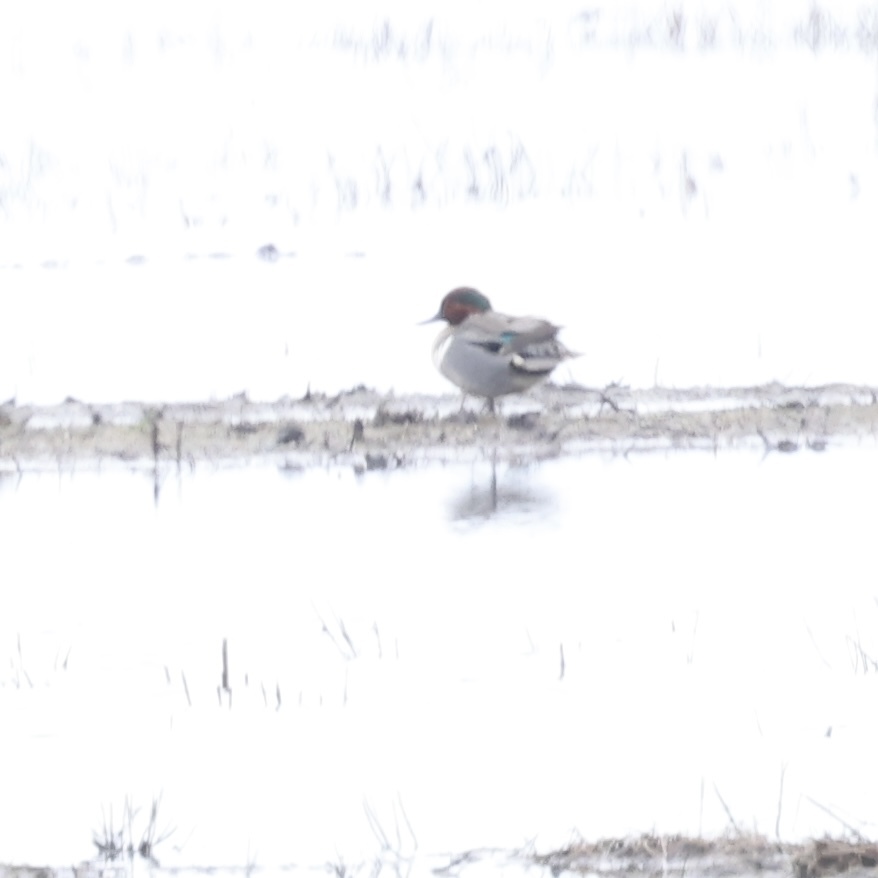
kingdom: Animalia
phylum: Chordata
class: Aves
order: Anseriformes
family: Anatidae
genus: Anas
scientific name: Anas crecca
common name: Eurasian teal
